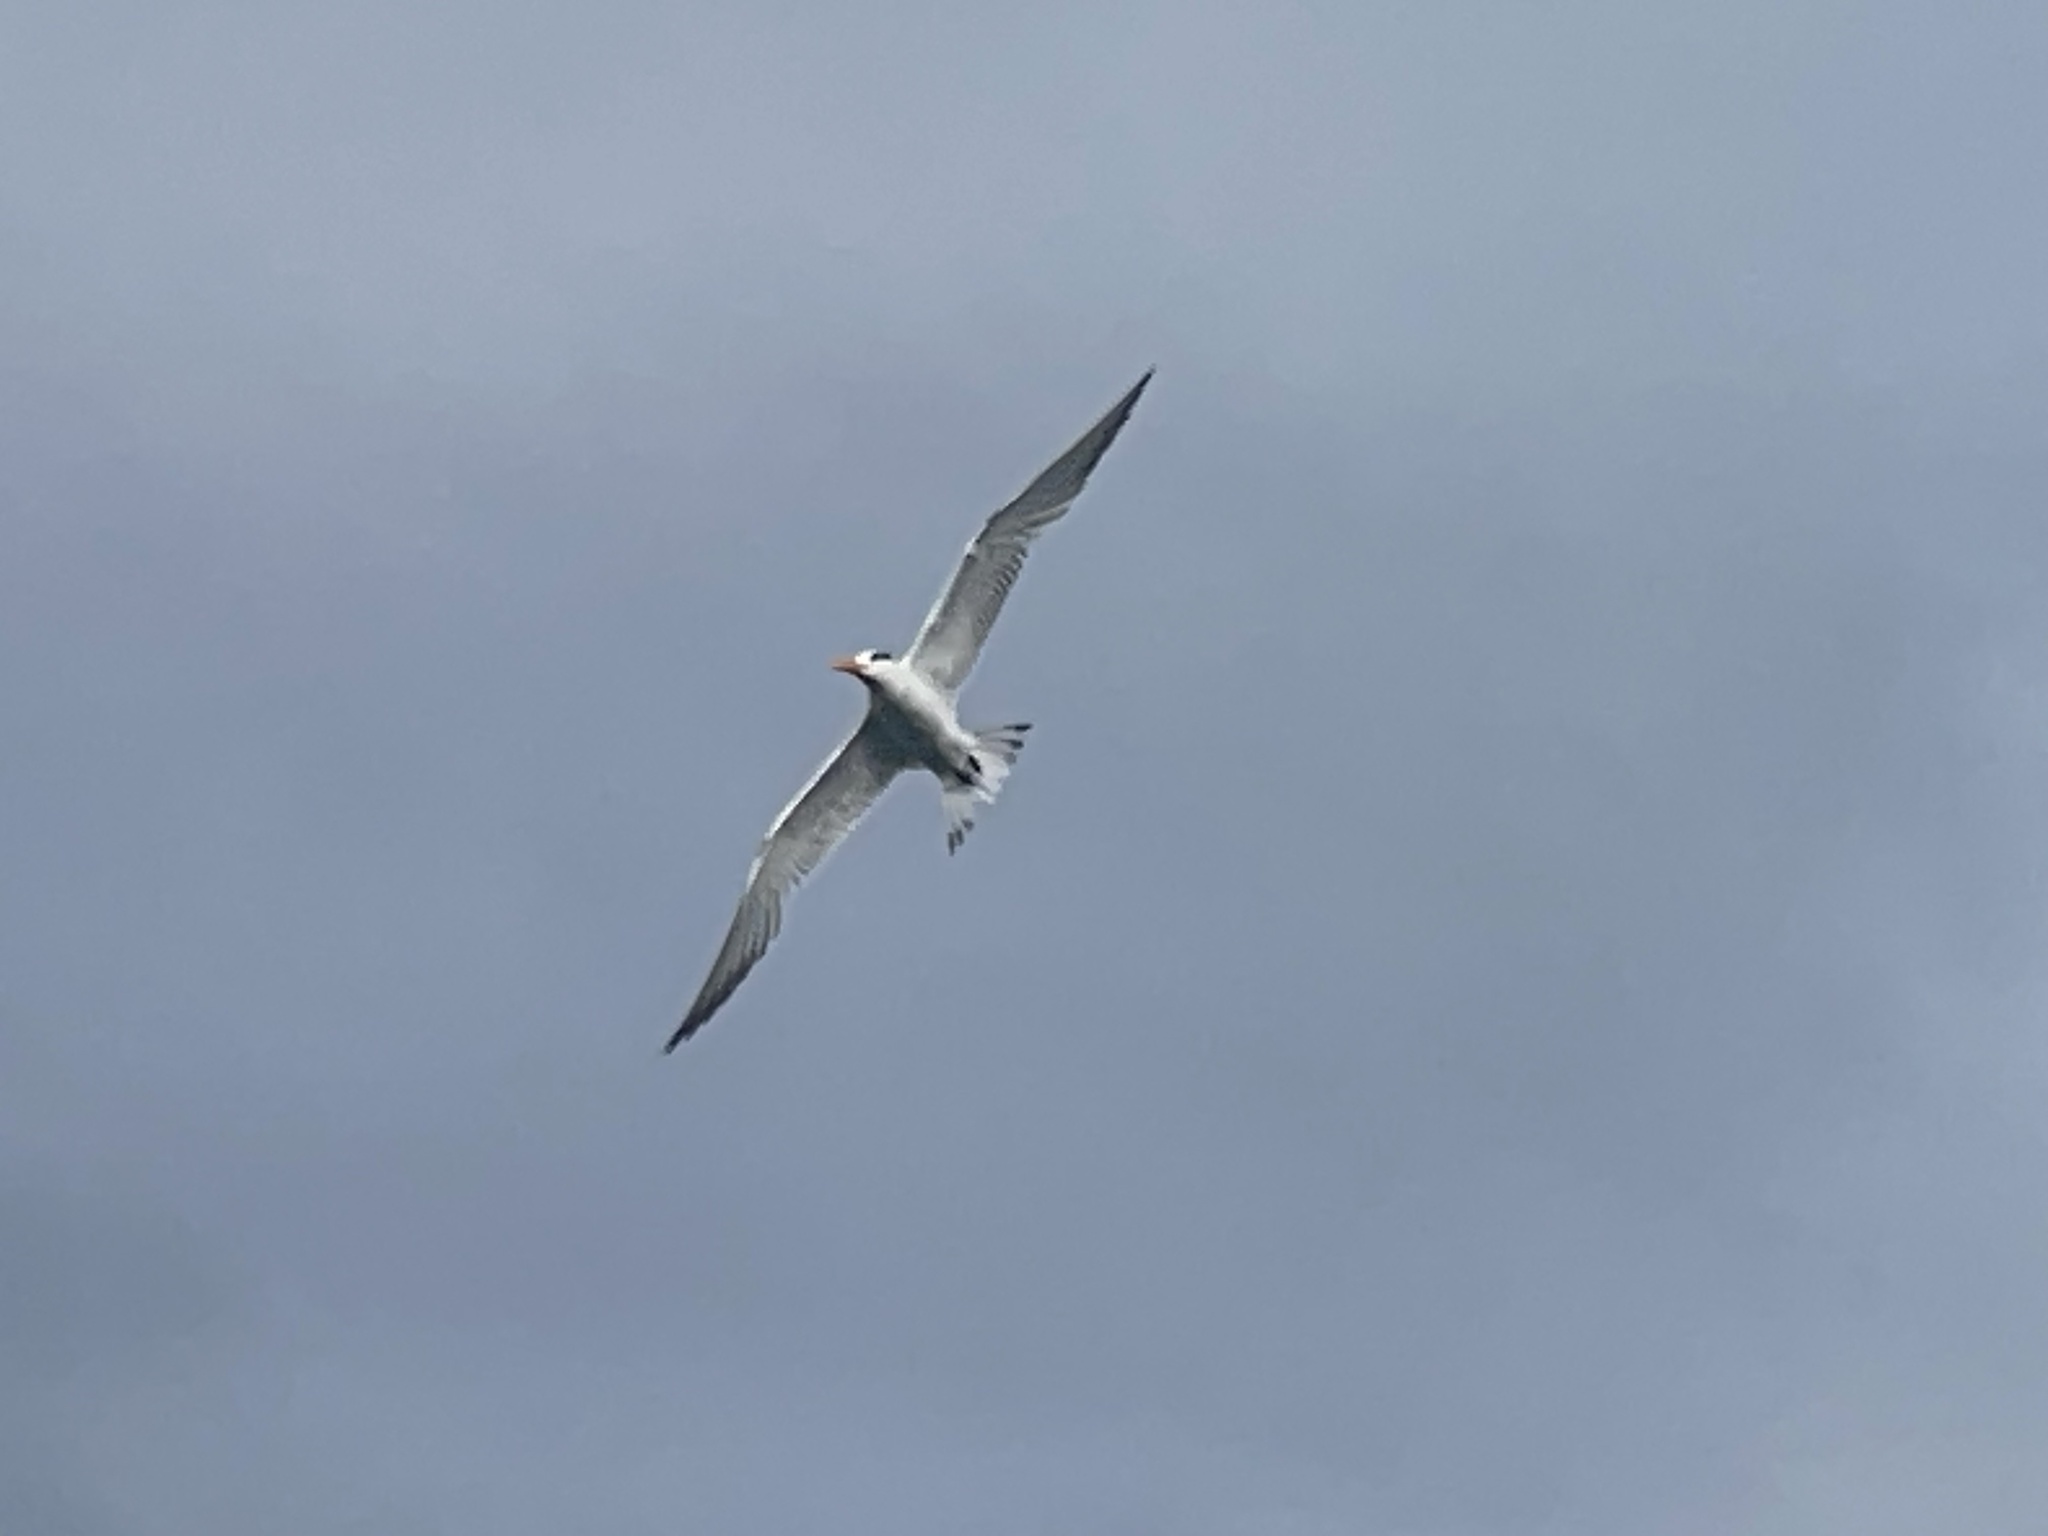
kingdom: Animalia
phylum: Chordata
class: Aves
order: Charadriiformes
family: Laridae
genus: Thalasseus
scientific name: Thalasseus maximus
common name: Royal tern
